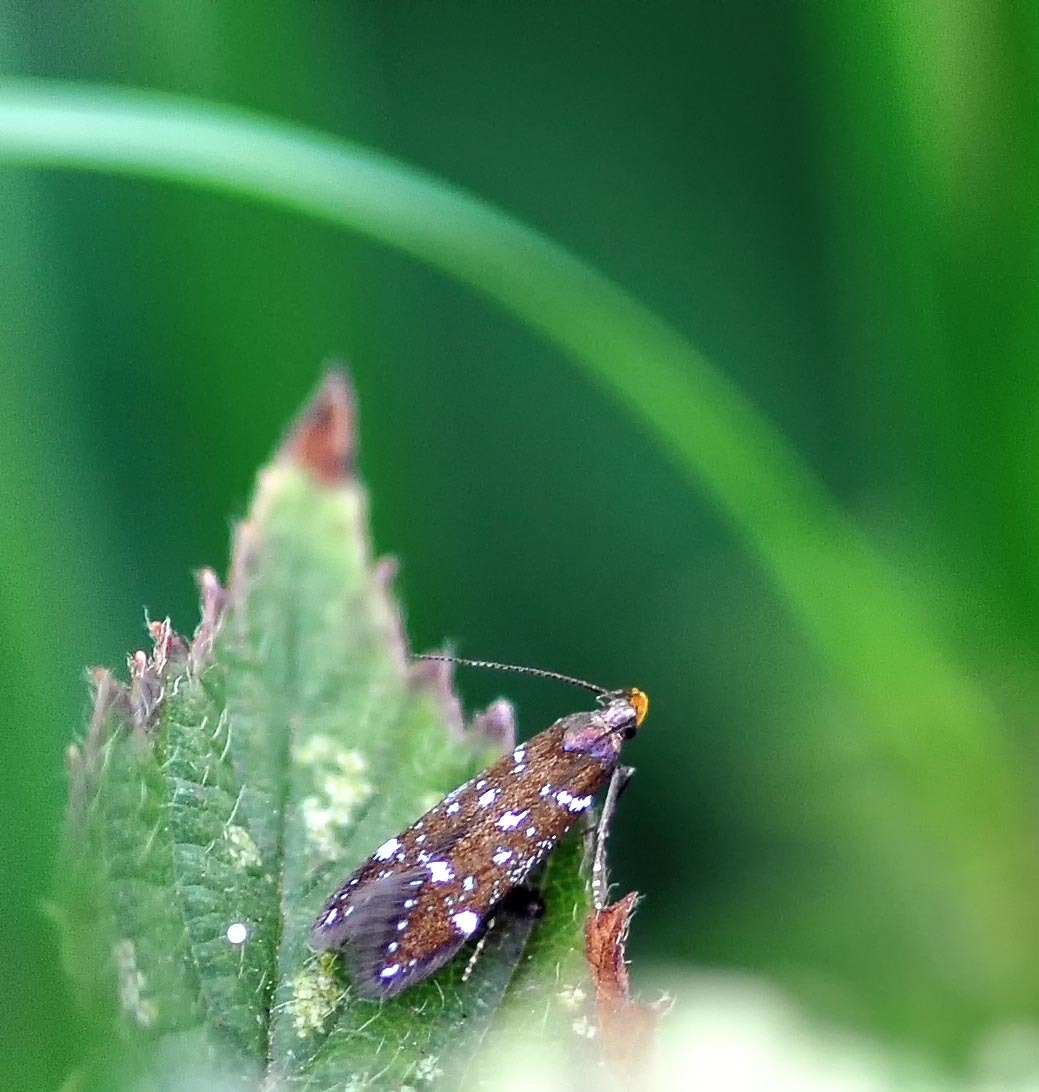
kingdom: Animalia
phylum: Arthropoda
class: Insecta
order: Lepidoptera
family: Gelechiidae
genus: Argolamprotes
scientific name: Argolamprotes micella
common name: Bright neb
